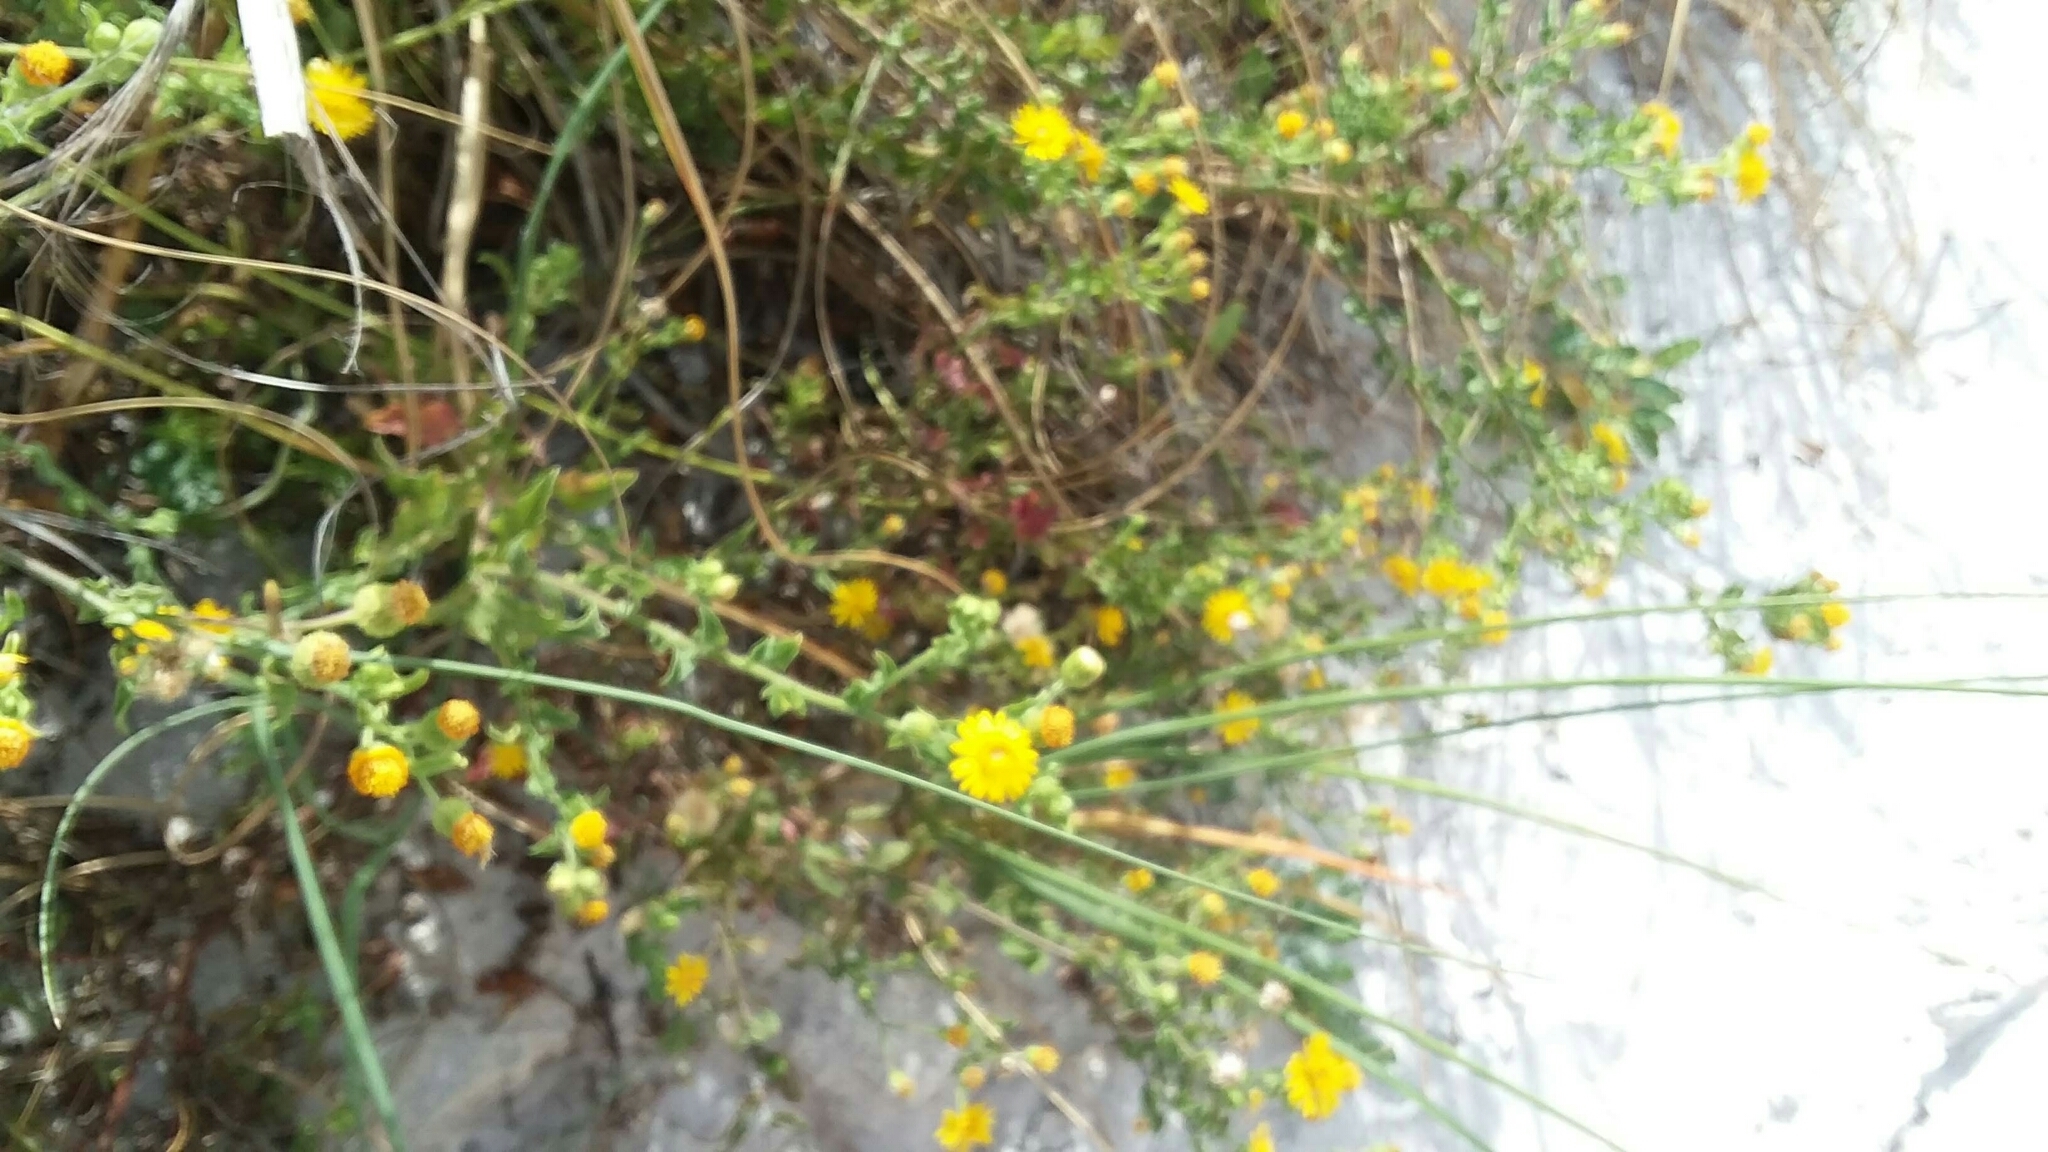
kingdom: Plantae
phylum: Tracheophyta
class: Magnoliopsida
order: Asterales
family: Asteraceae
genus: Heterotheca
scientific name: Heterotheca subaxillaris
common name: Camphorweed
